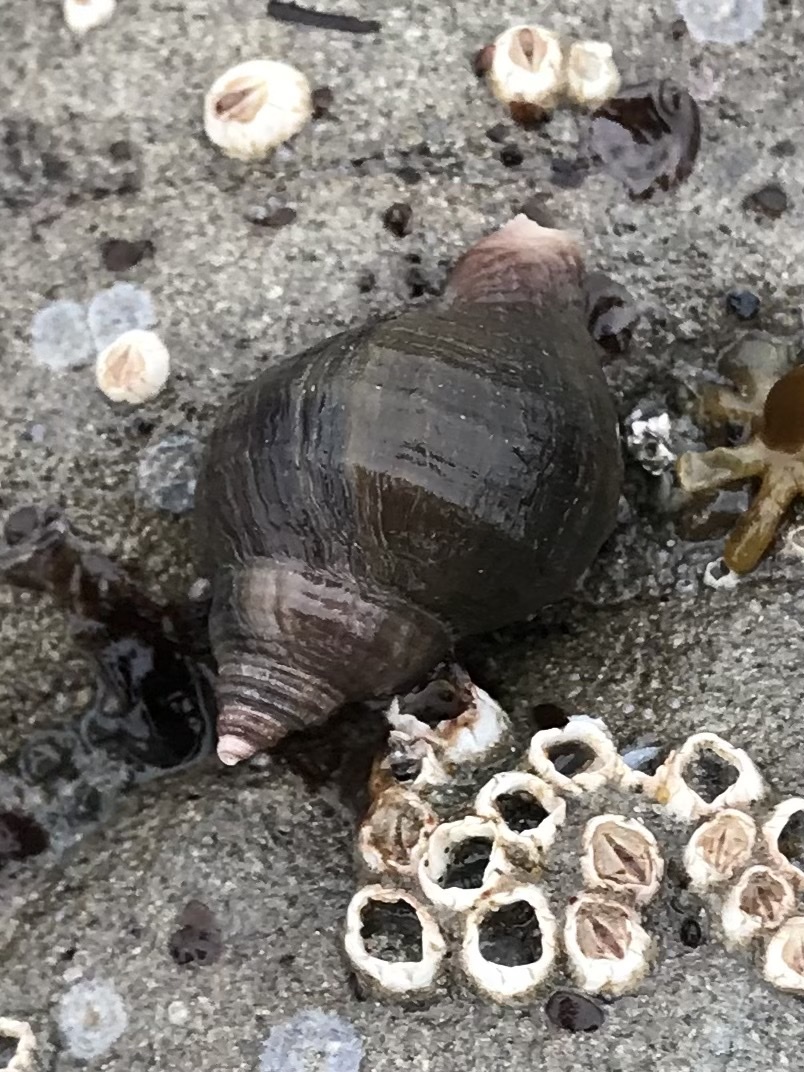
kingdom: Animalia
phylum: Mollusca
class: Gastropoda
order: Neogastropoda
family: Muricidae
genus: Nucella
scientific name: Nucella lamellosa
